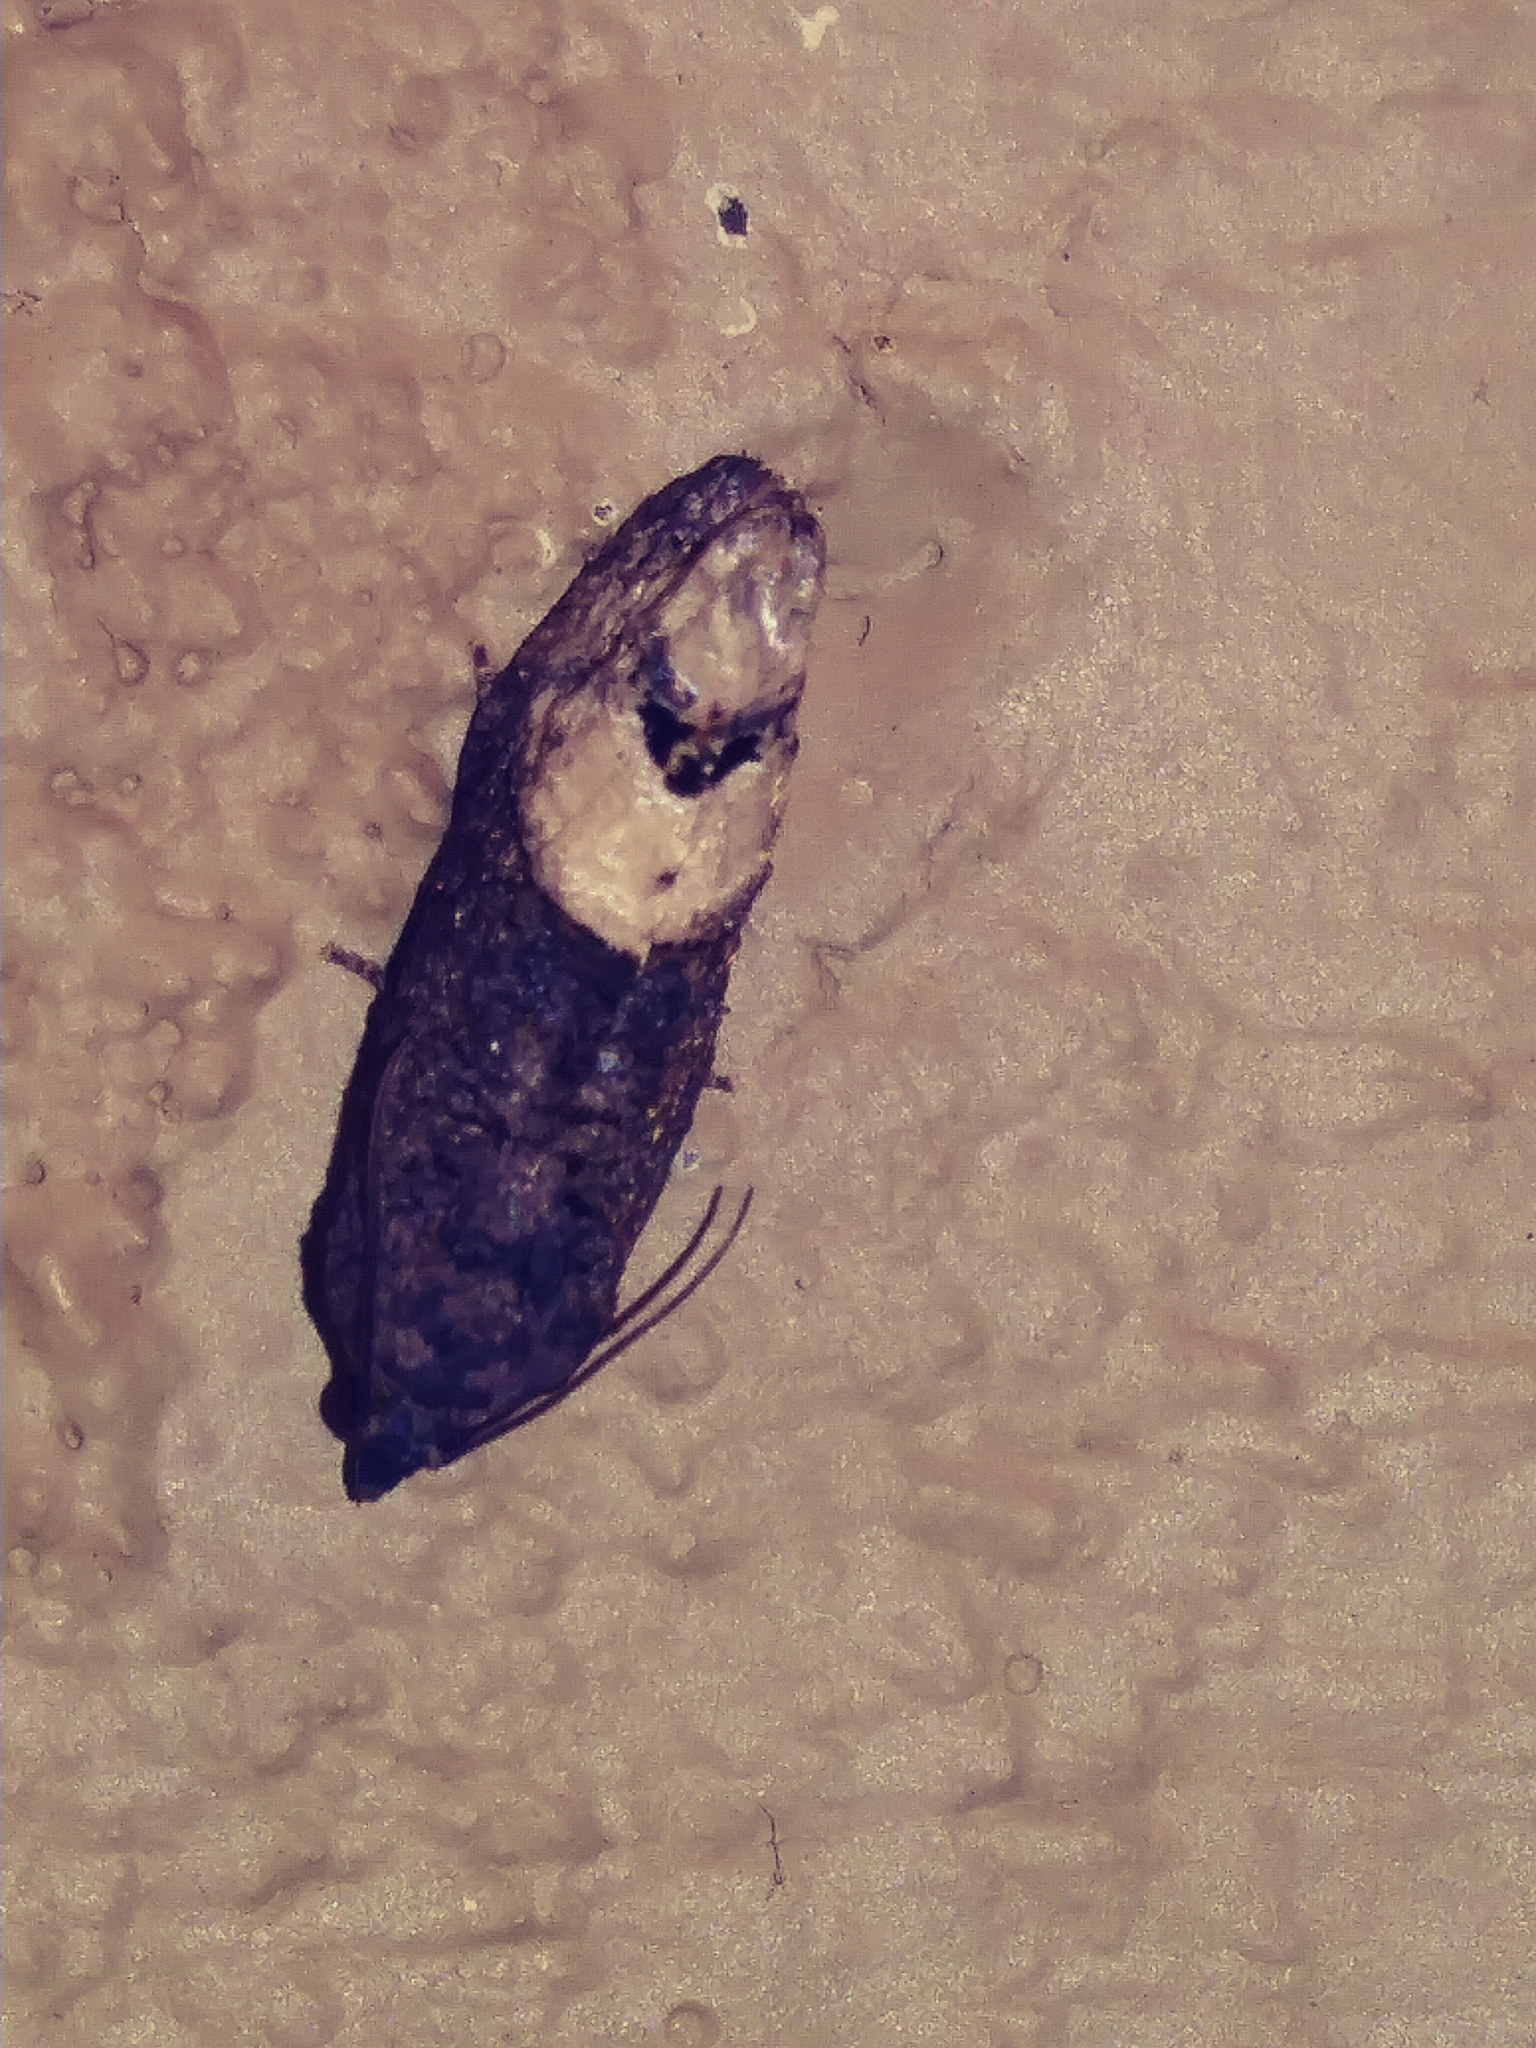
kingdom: Animalia
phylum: Arthropoda
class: Insecta
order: Lepidoptera
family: Tortricidae
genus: Ecdytolopha
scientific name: Ecdytolopha insiticiana
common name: Locust twig borer moth
